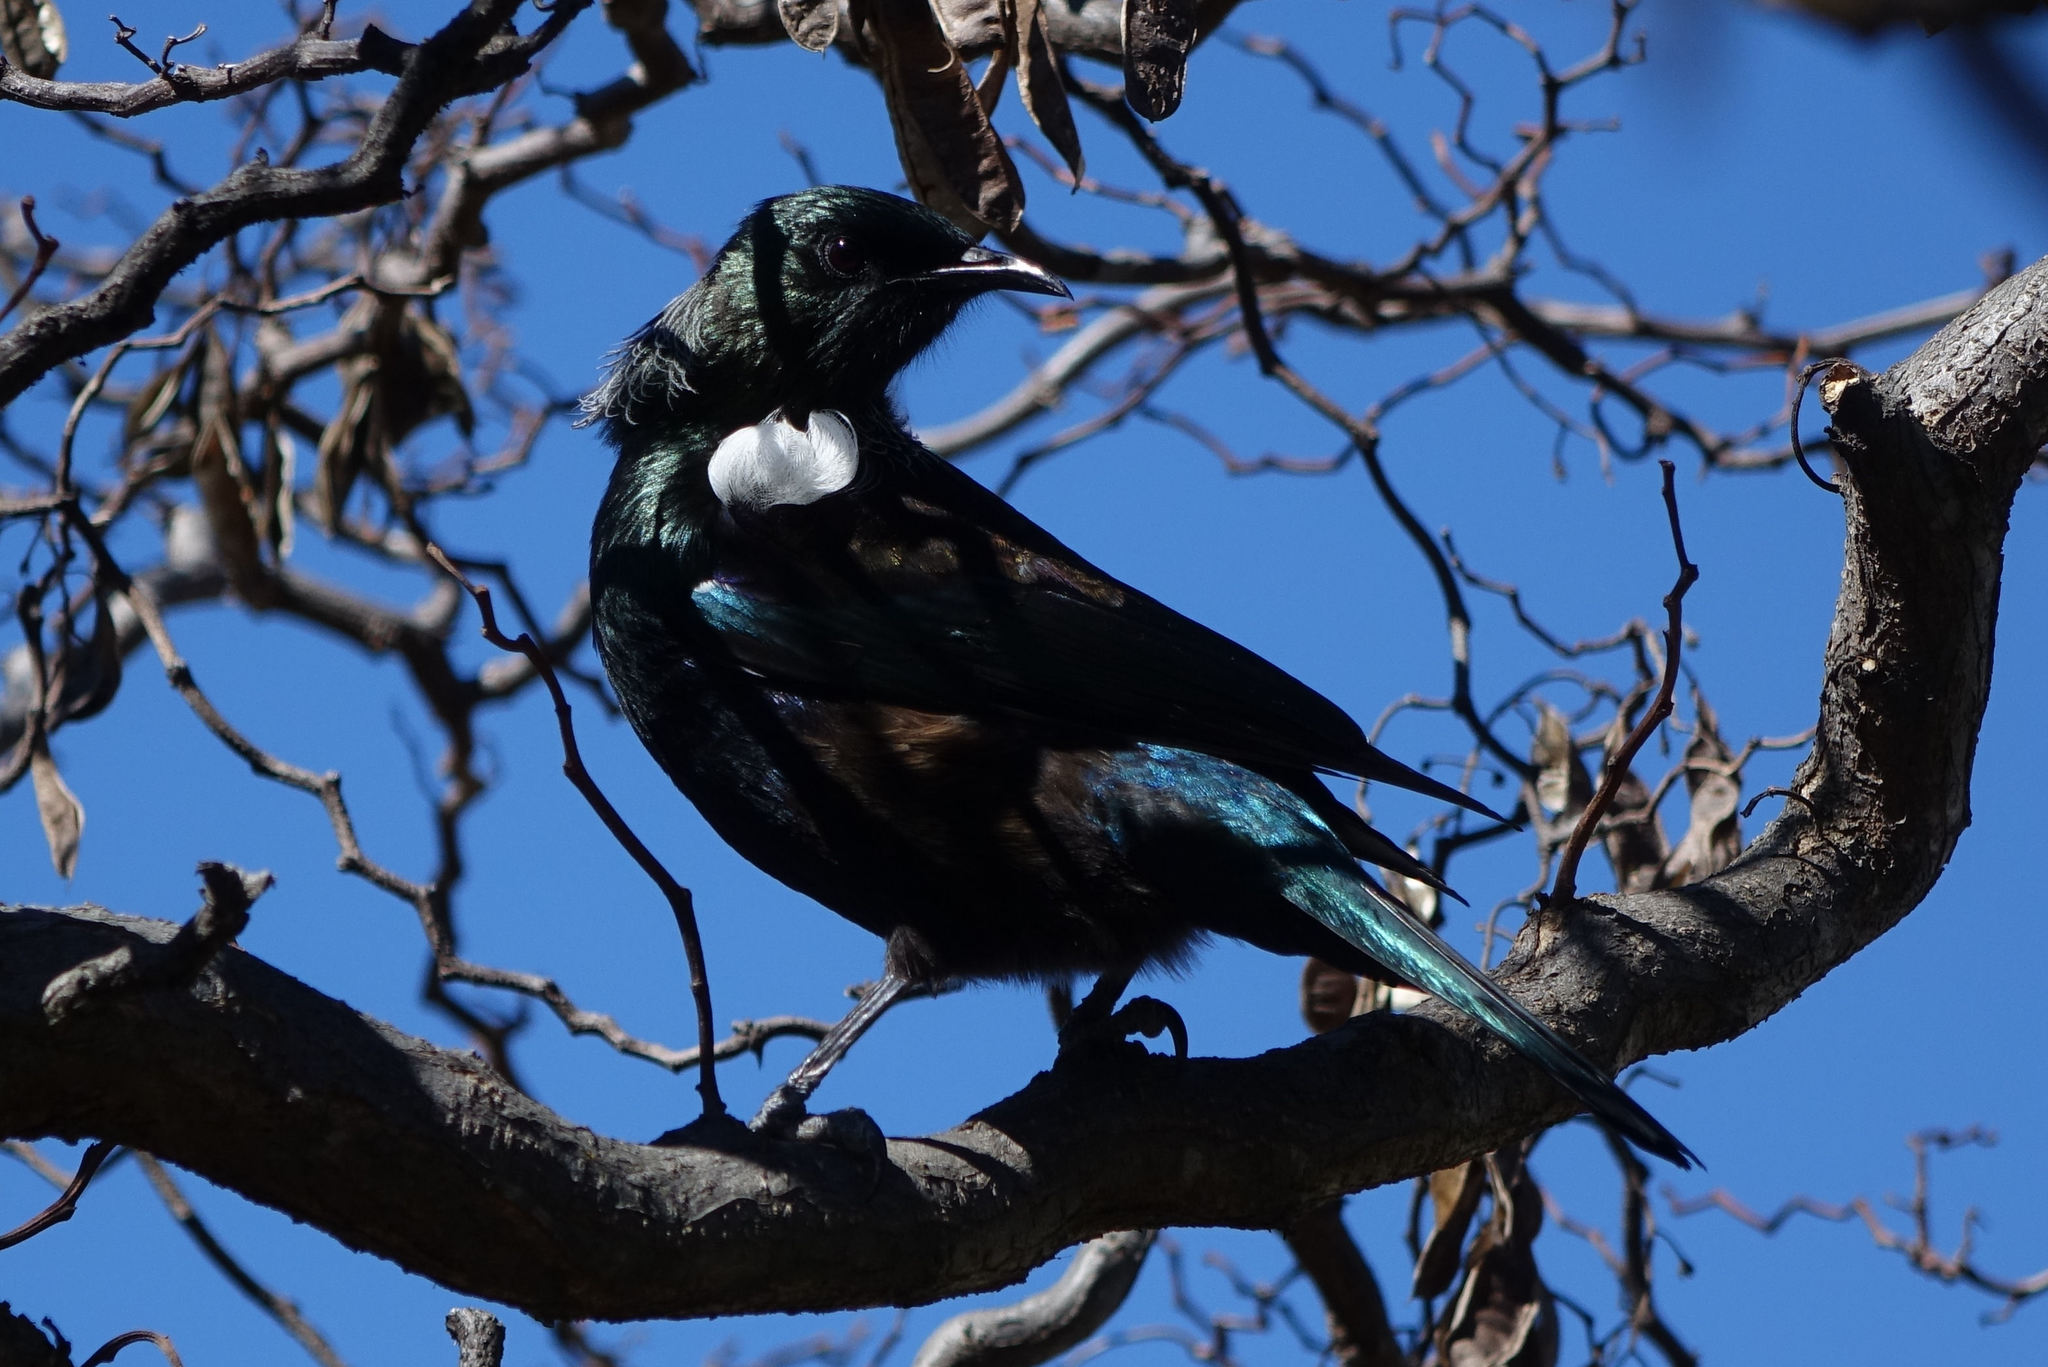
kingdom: Animalia
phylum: Chordata
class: Aves
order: Passeriformes
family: Meliphagidae
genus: Prosthemadera
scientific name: Prosthemadera novaeseelandiae
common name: Tui
